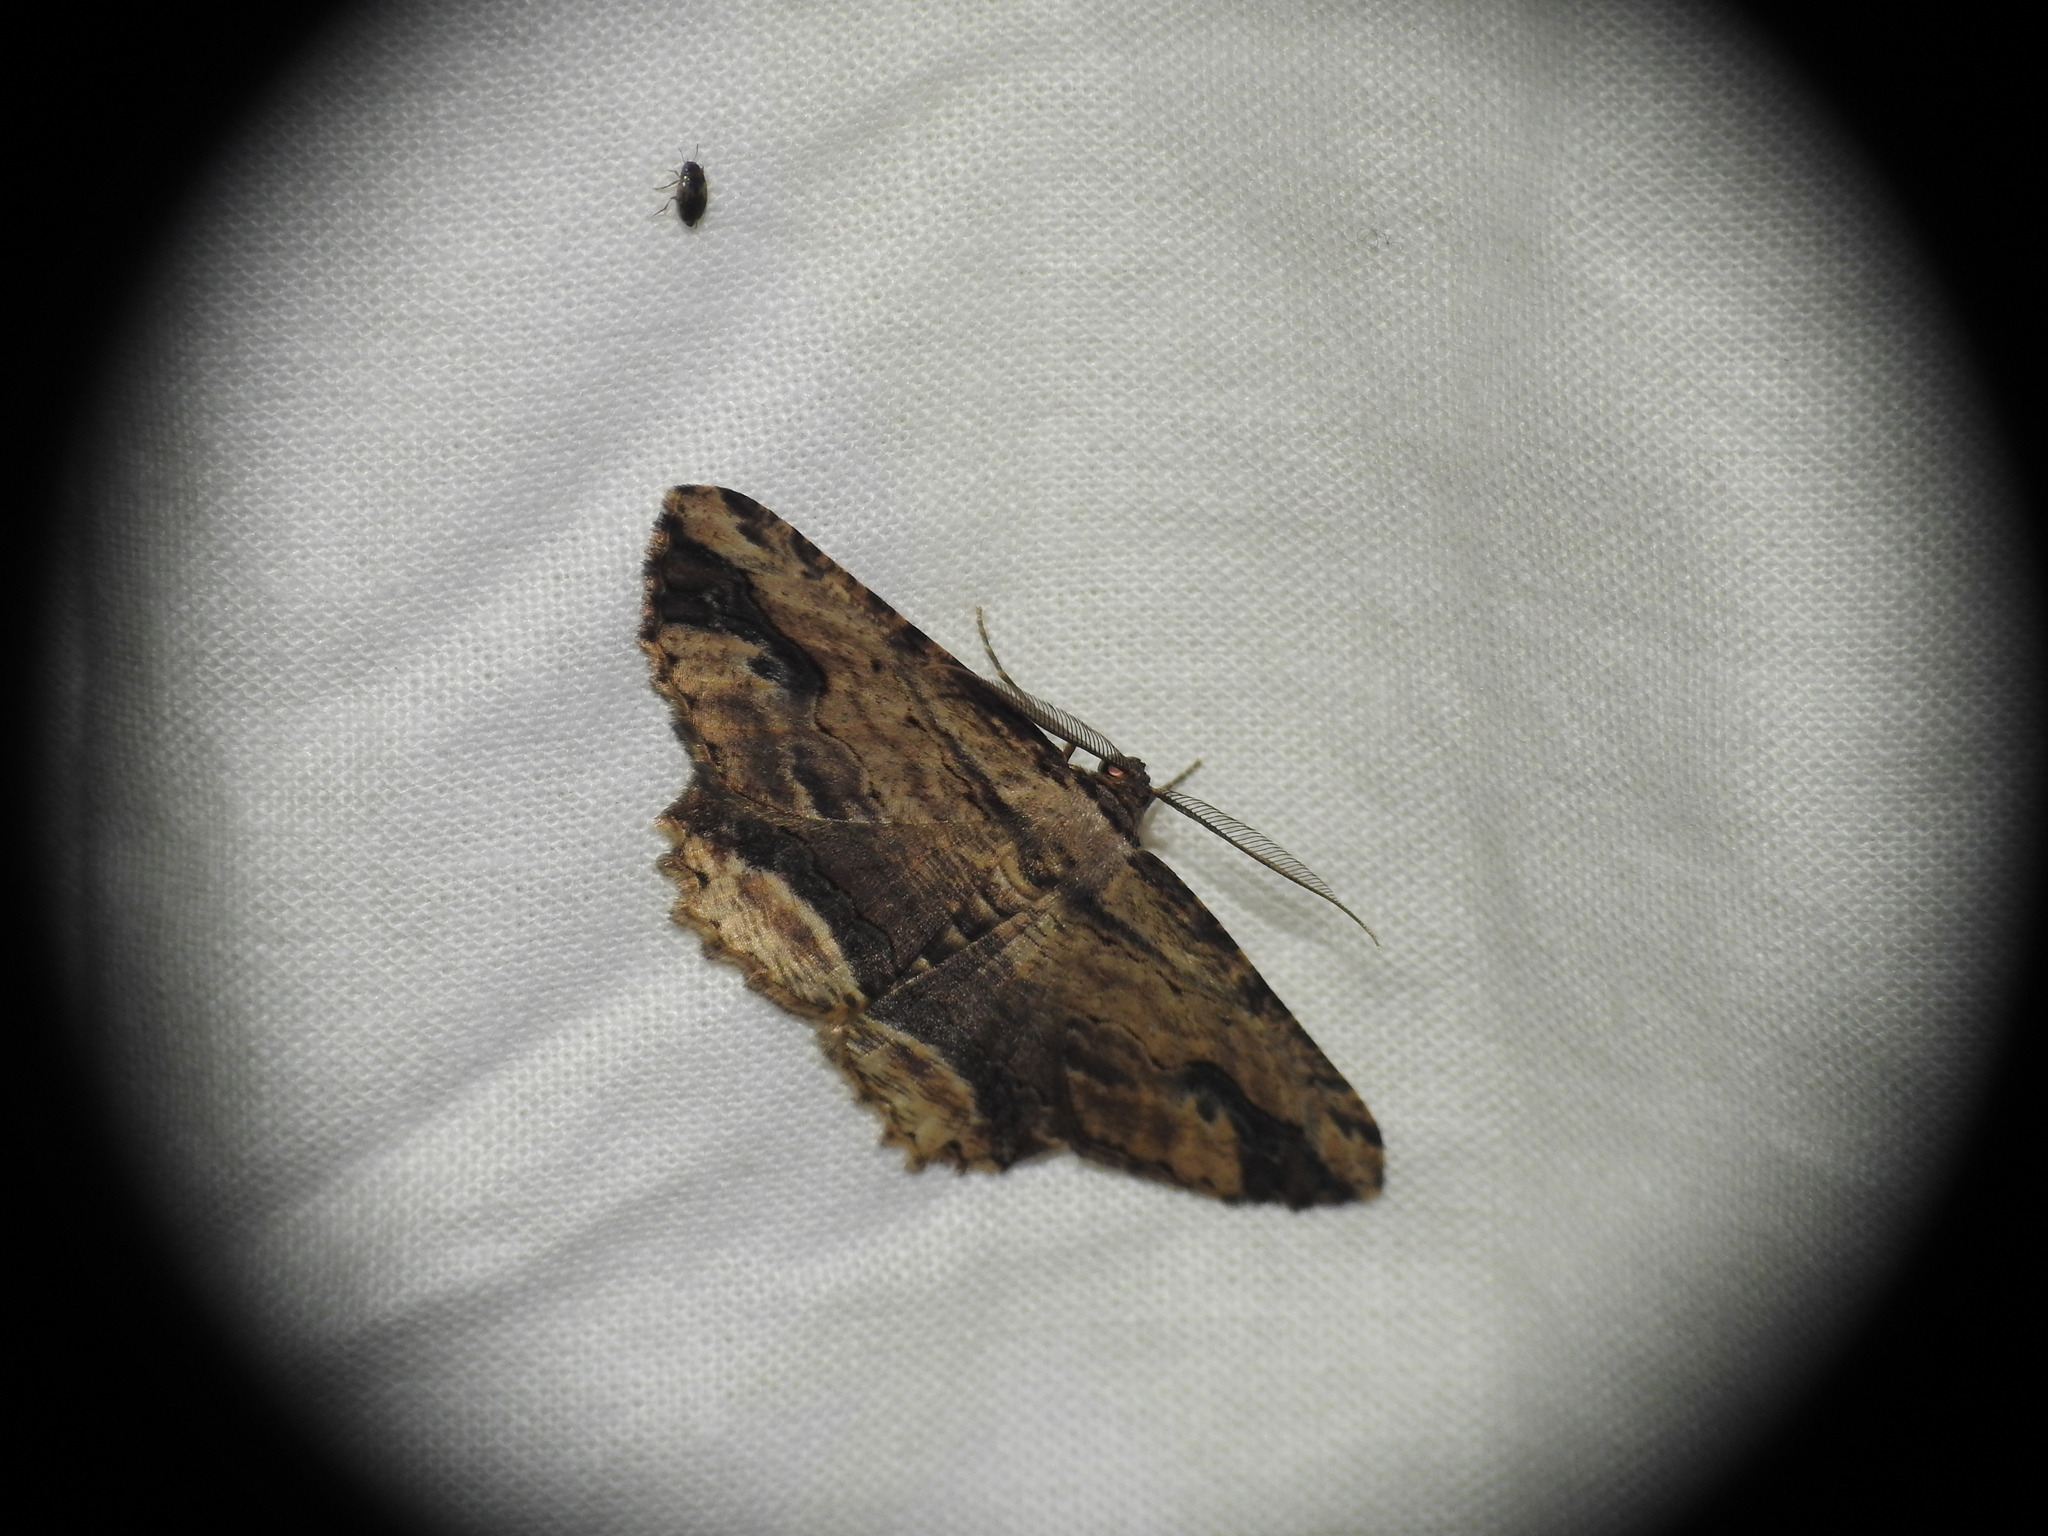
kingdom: Animalia
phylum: Arthropoda
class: Insecta
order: Lepidoptera
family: Geometridae
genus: Menophra
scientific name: Menophra abruptaria
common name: Waved umber
